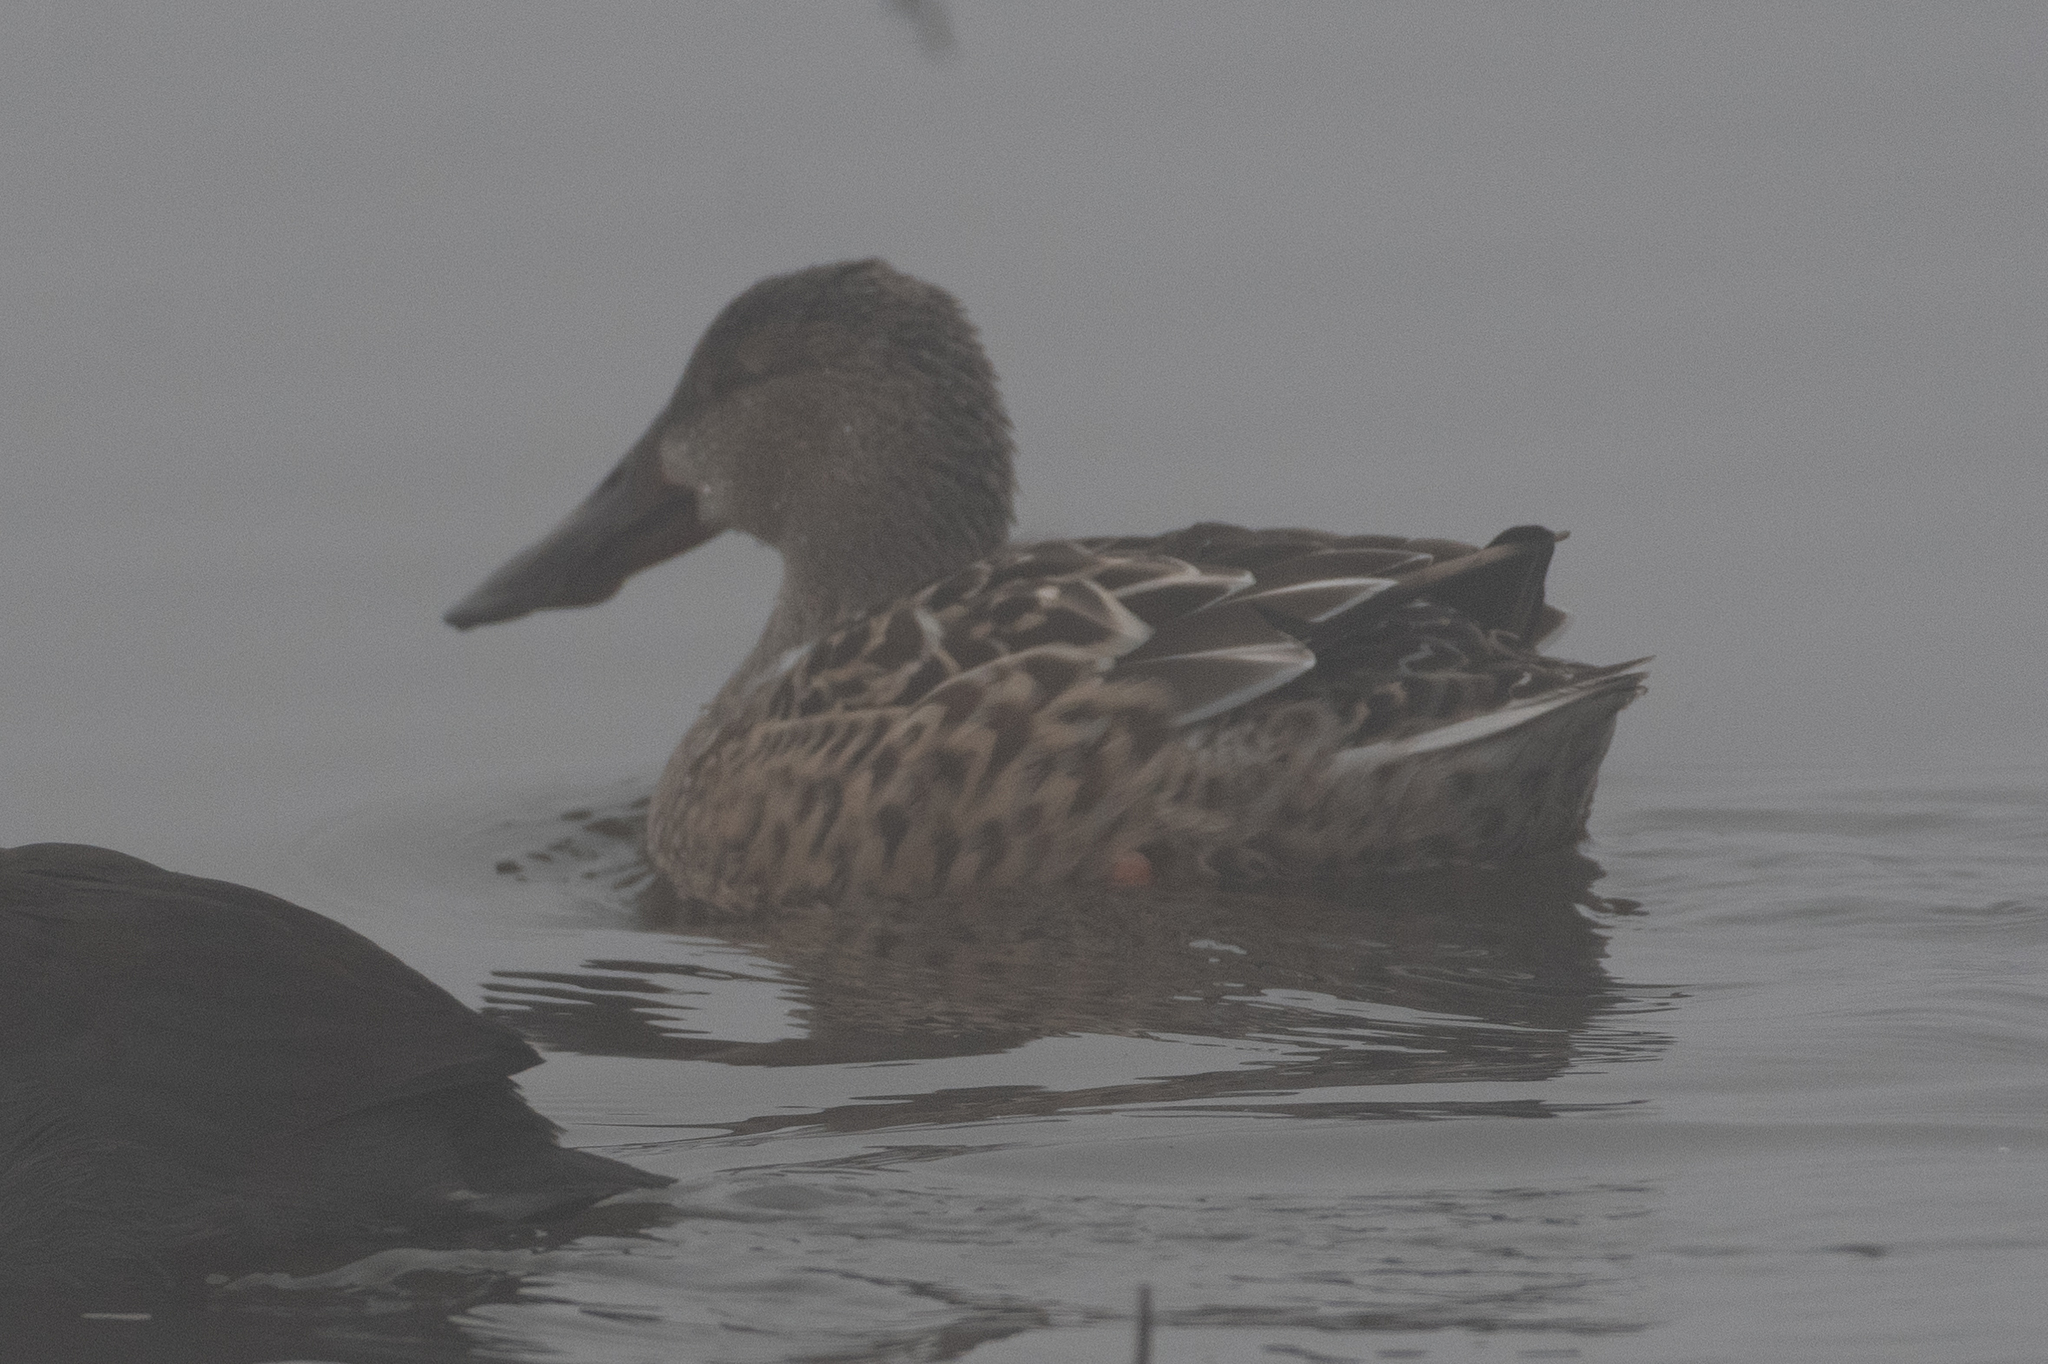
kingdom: Animalia
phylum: Chordata
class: Aves
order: Anseriformes
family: Anatidae
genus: Spatula
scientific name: Spatula clypeata
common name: Northern shoveler
